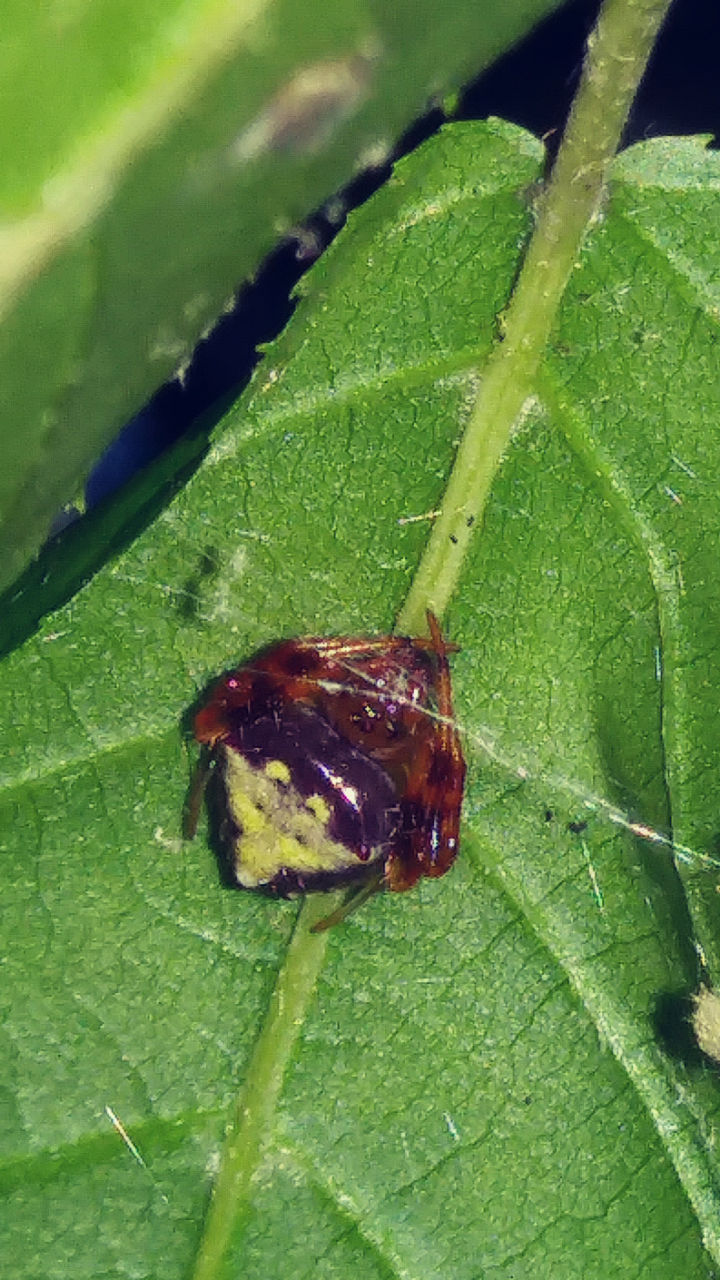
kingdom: Animalia
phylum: Arthropoda
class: Arachnida
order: Araneae
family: Araneidae
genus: Verrucosa
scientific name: Verrucosa arenata
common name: Orb weavers
